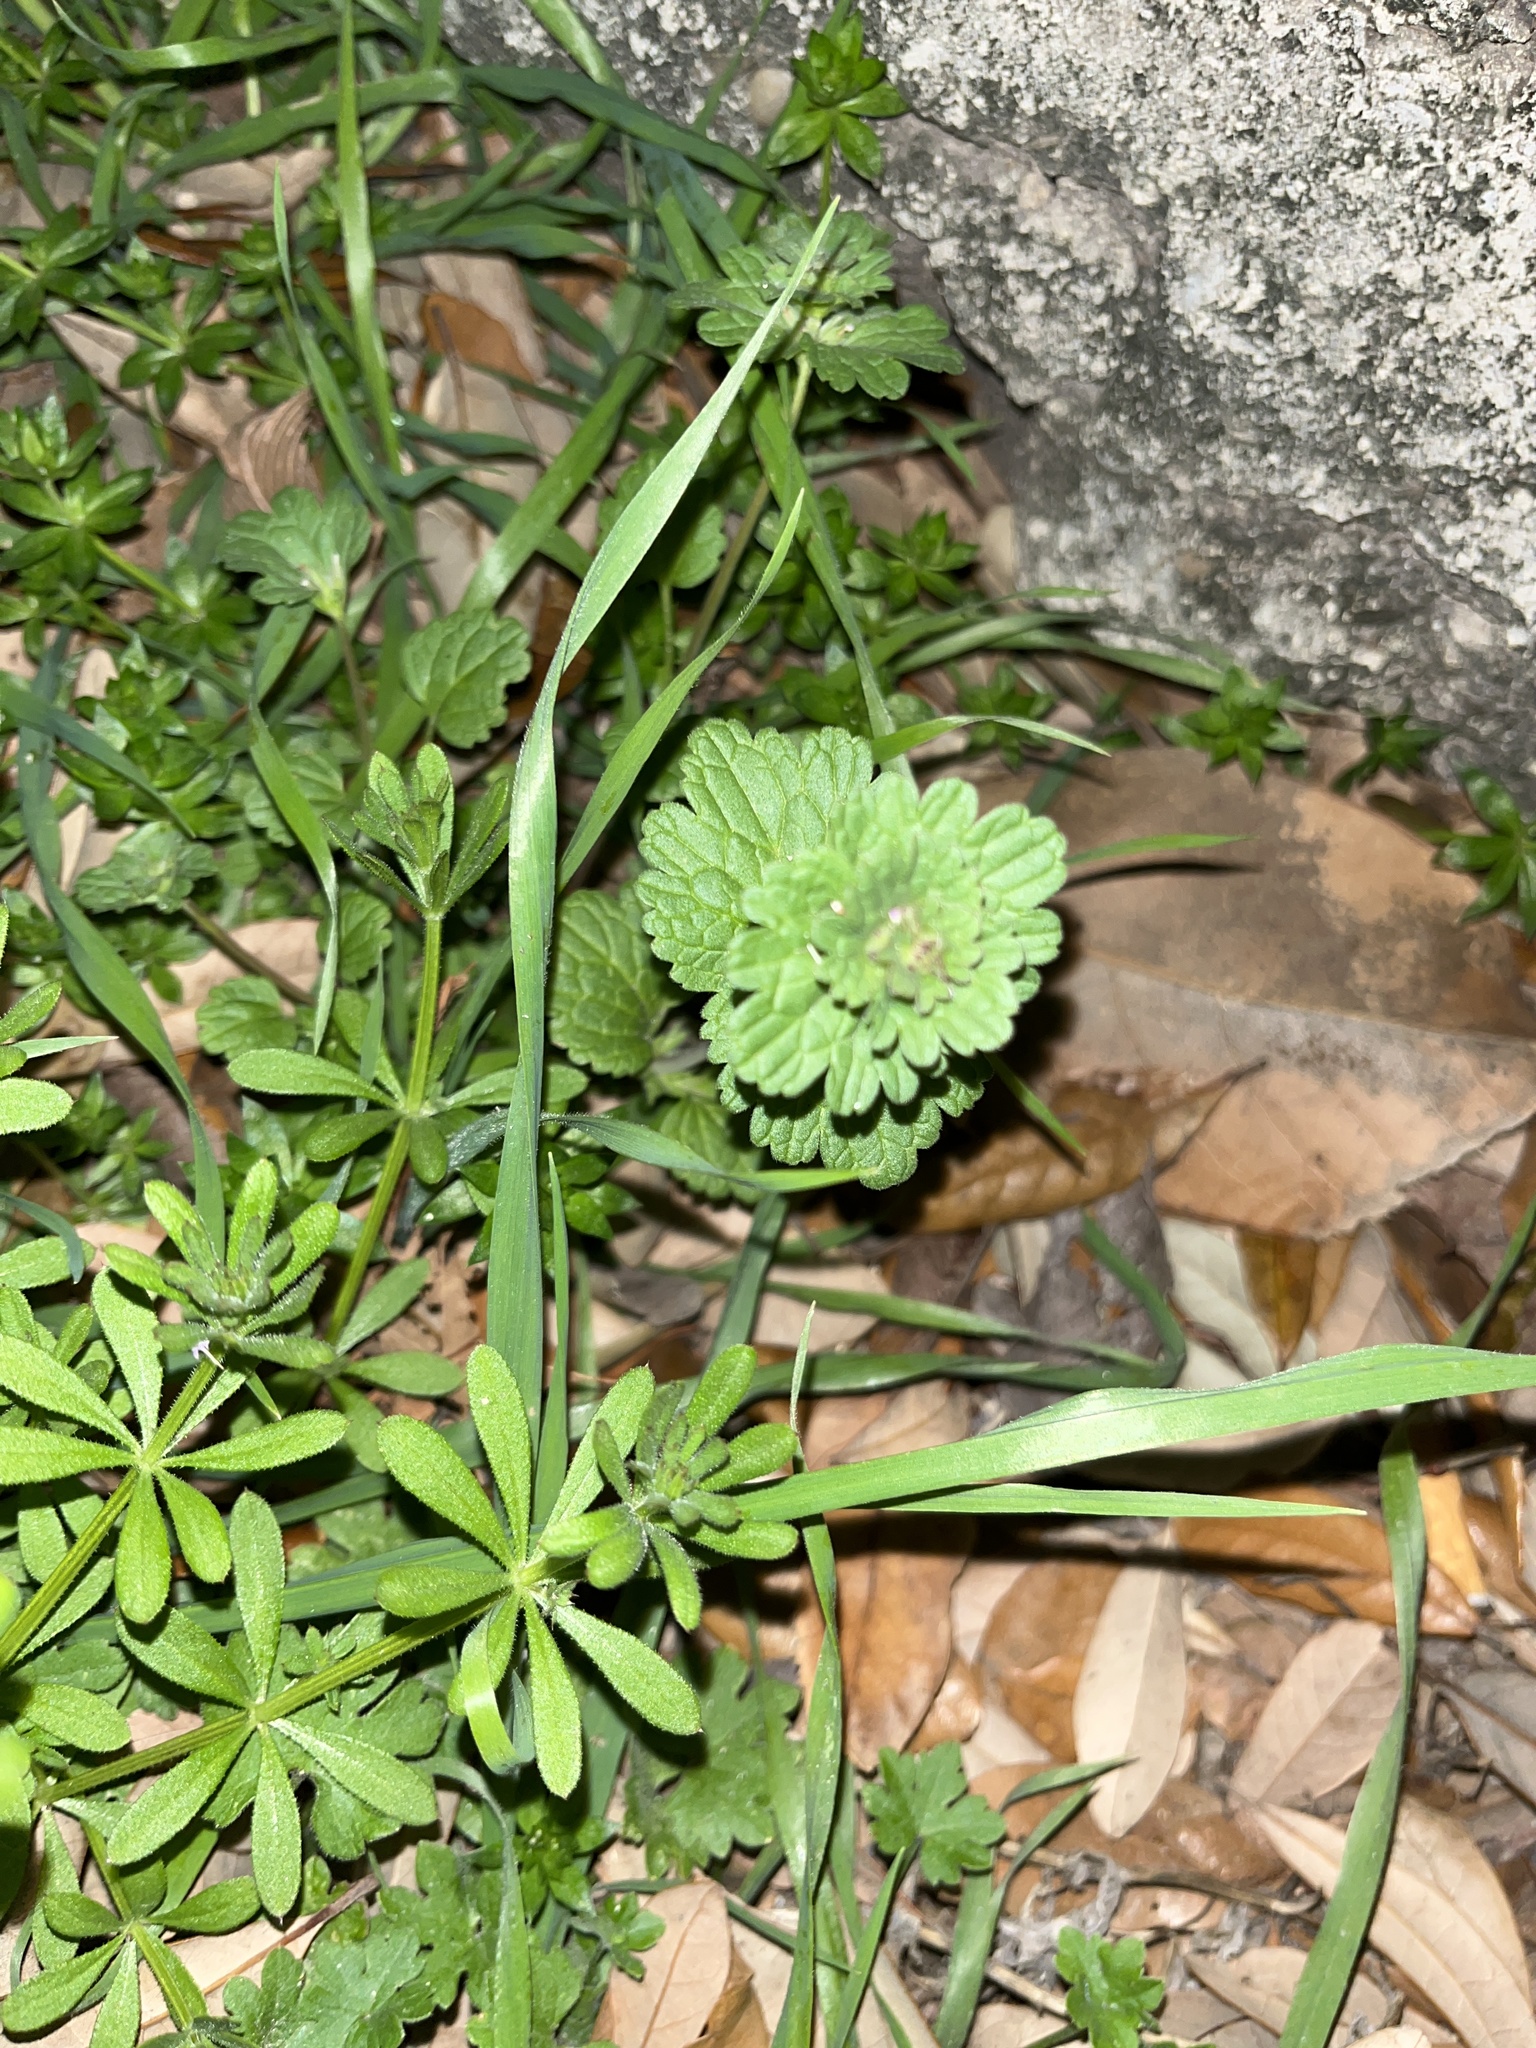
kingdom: Plantae
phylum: Tracheophyta
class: Magnoliopsida
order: Lamiales
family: Lamiaceae
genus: Lamium
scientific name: Lamium amplexicaule
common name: Henbit dead-nettle
